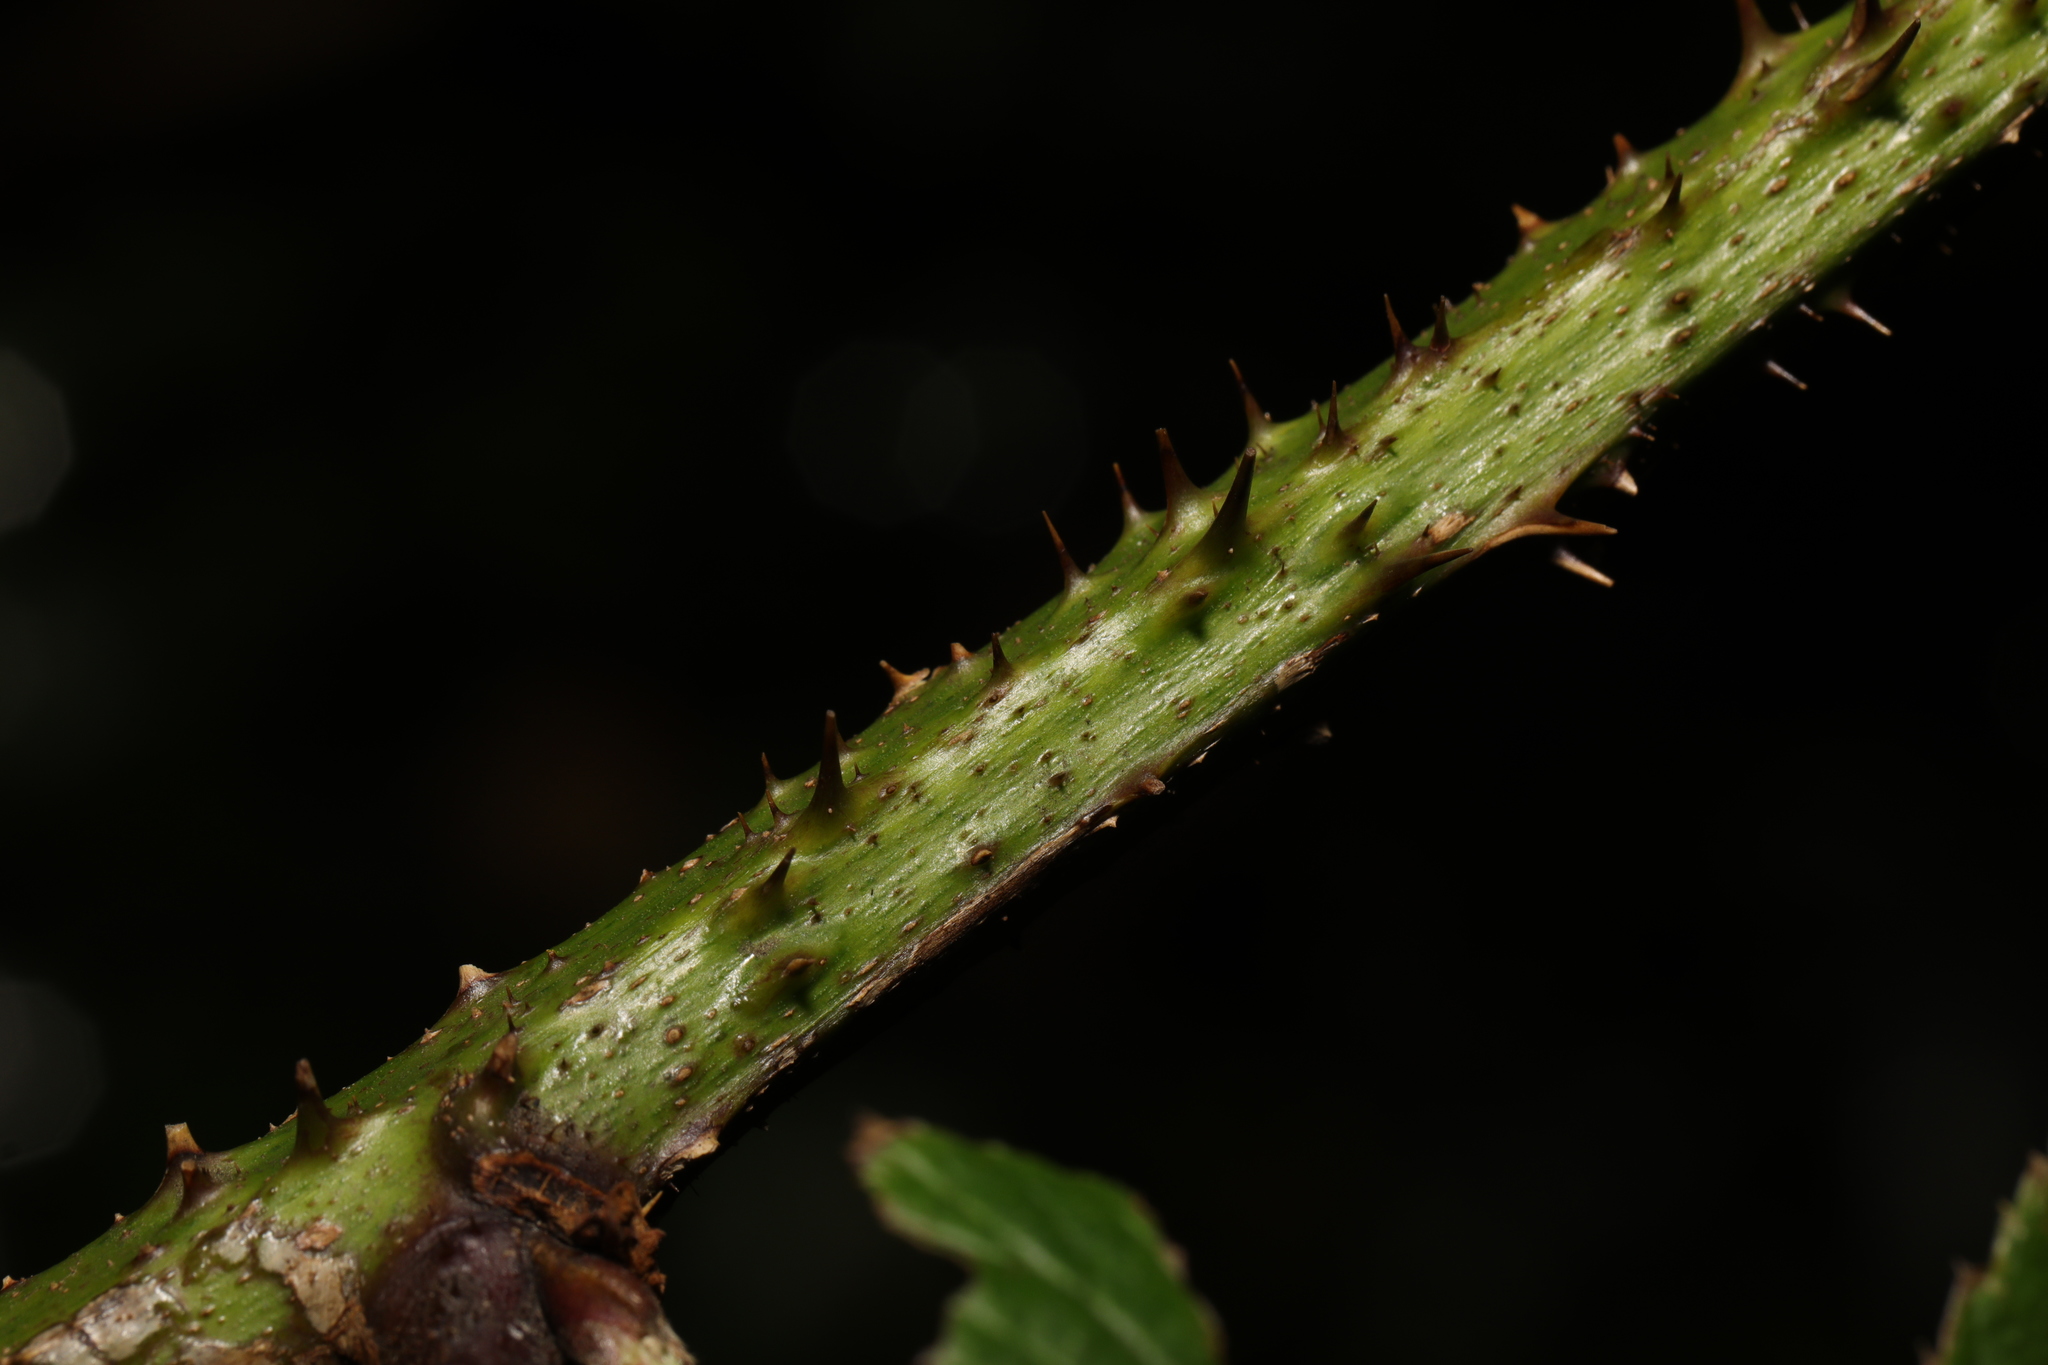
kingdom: Plantae
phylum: Tracheophyta
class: Magnoliopsida
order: Rosales
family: Rosaceae
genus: Rubus
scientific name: Rubus hylocharis
